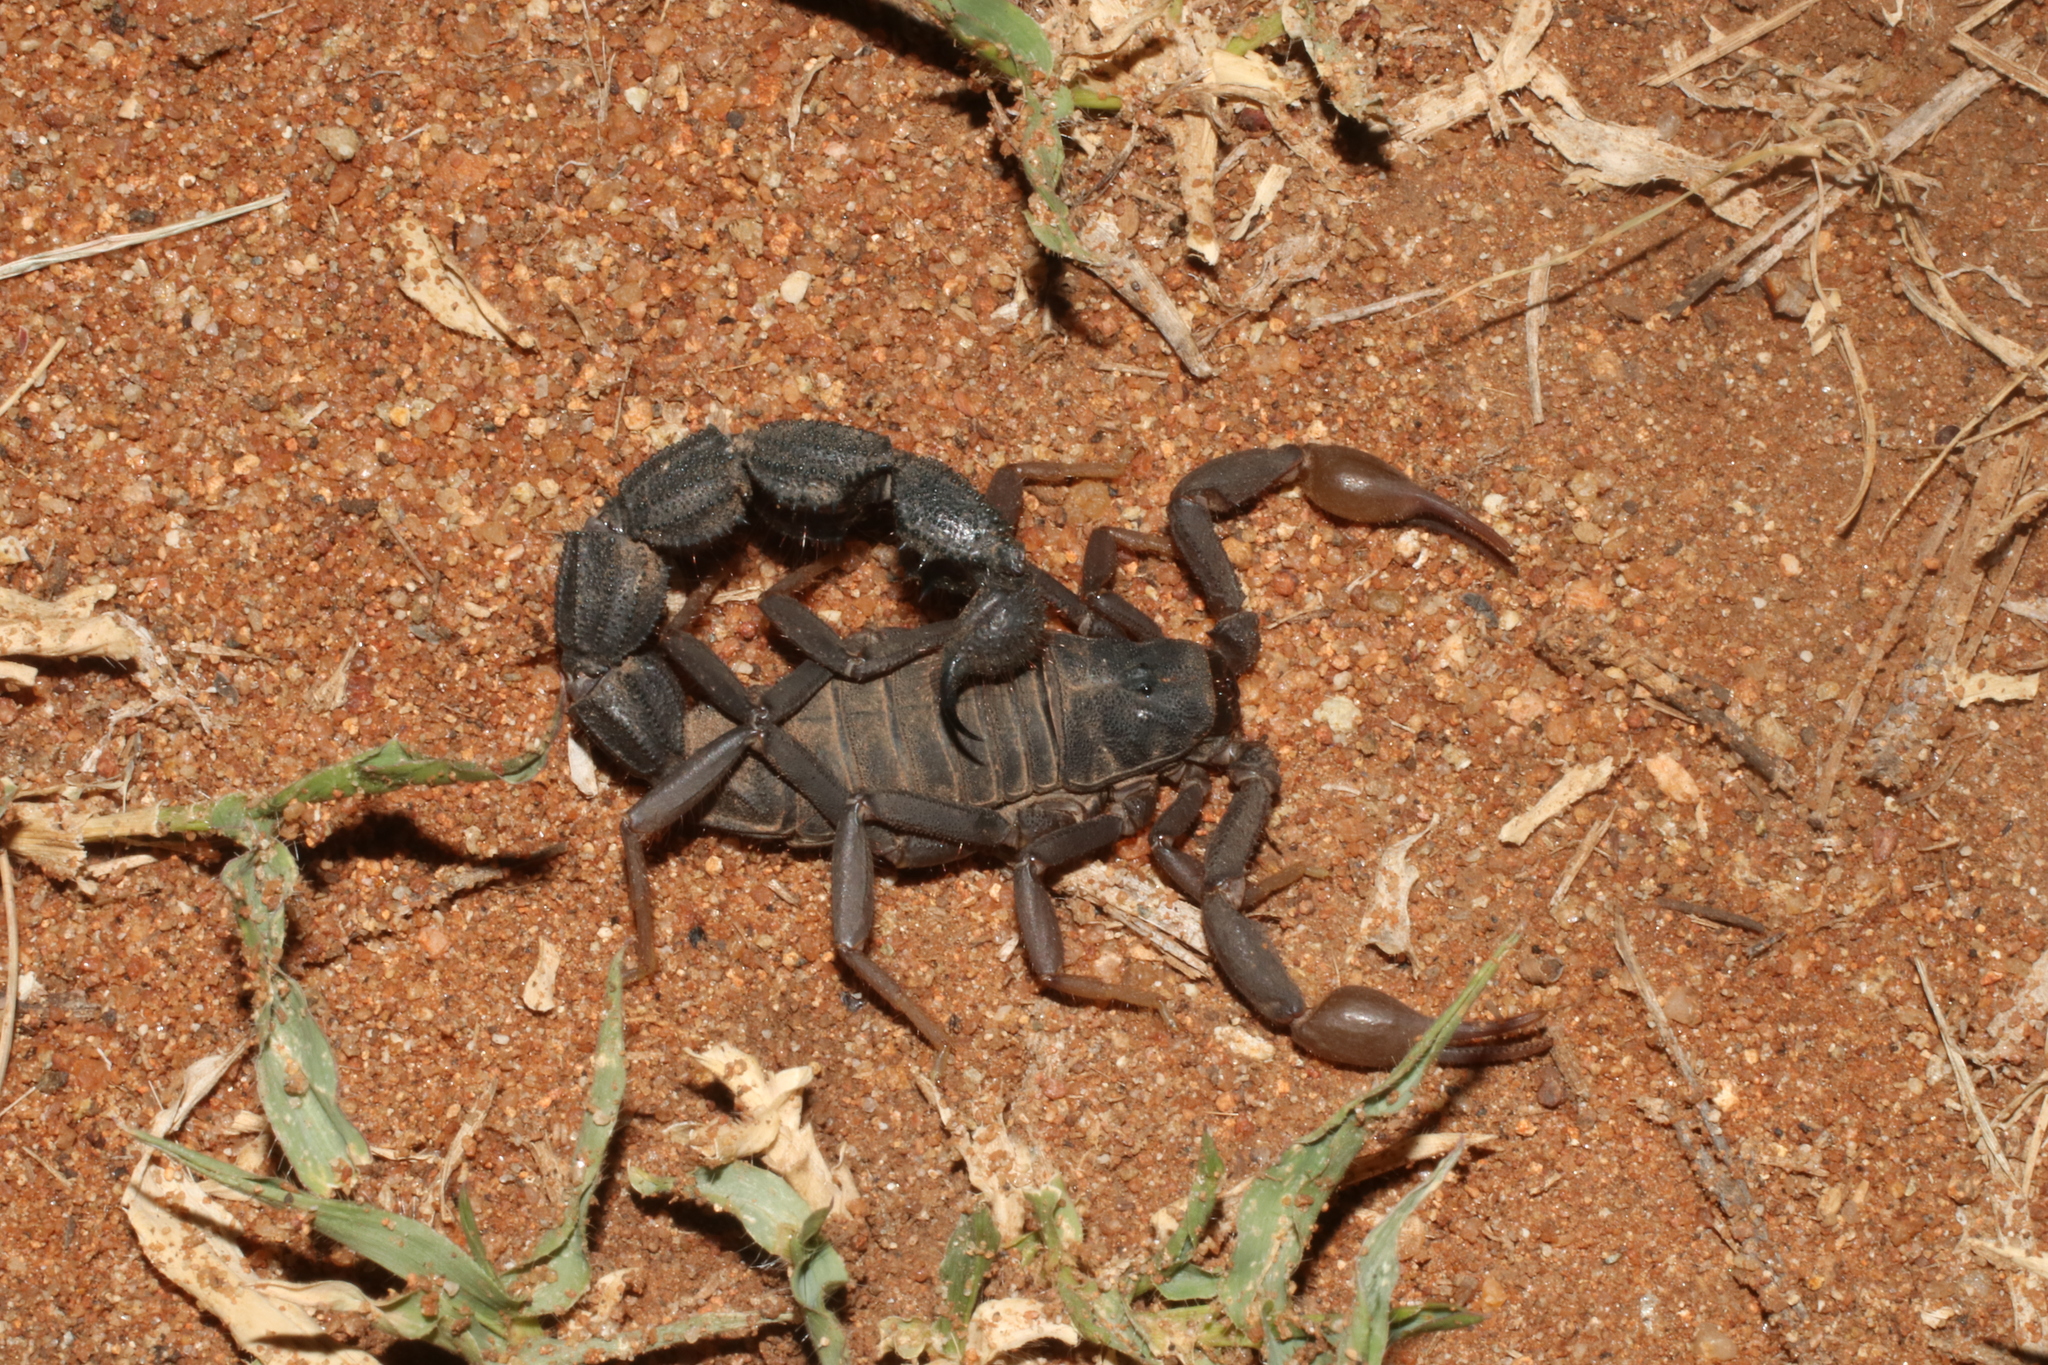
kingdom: Animalia
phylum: Arthropoda
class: Arachnida
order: Scorpiones
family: Buthidae
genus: Parabuthus
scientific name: Parabuthus transvaalicus
